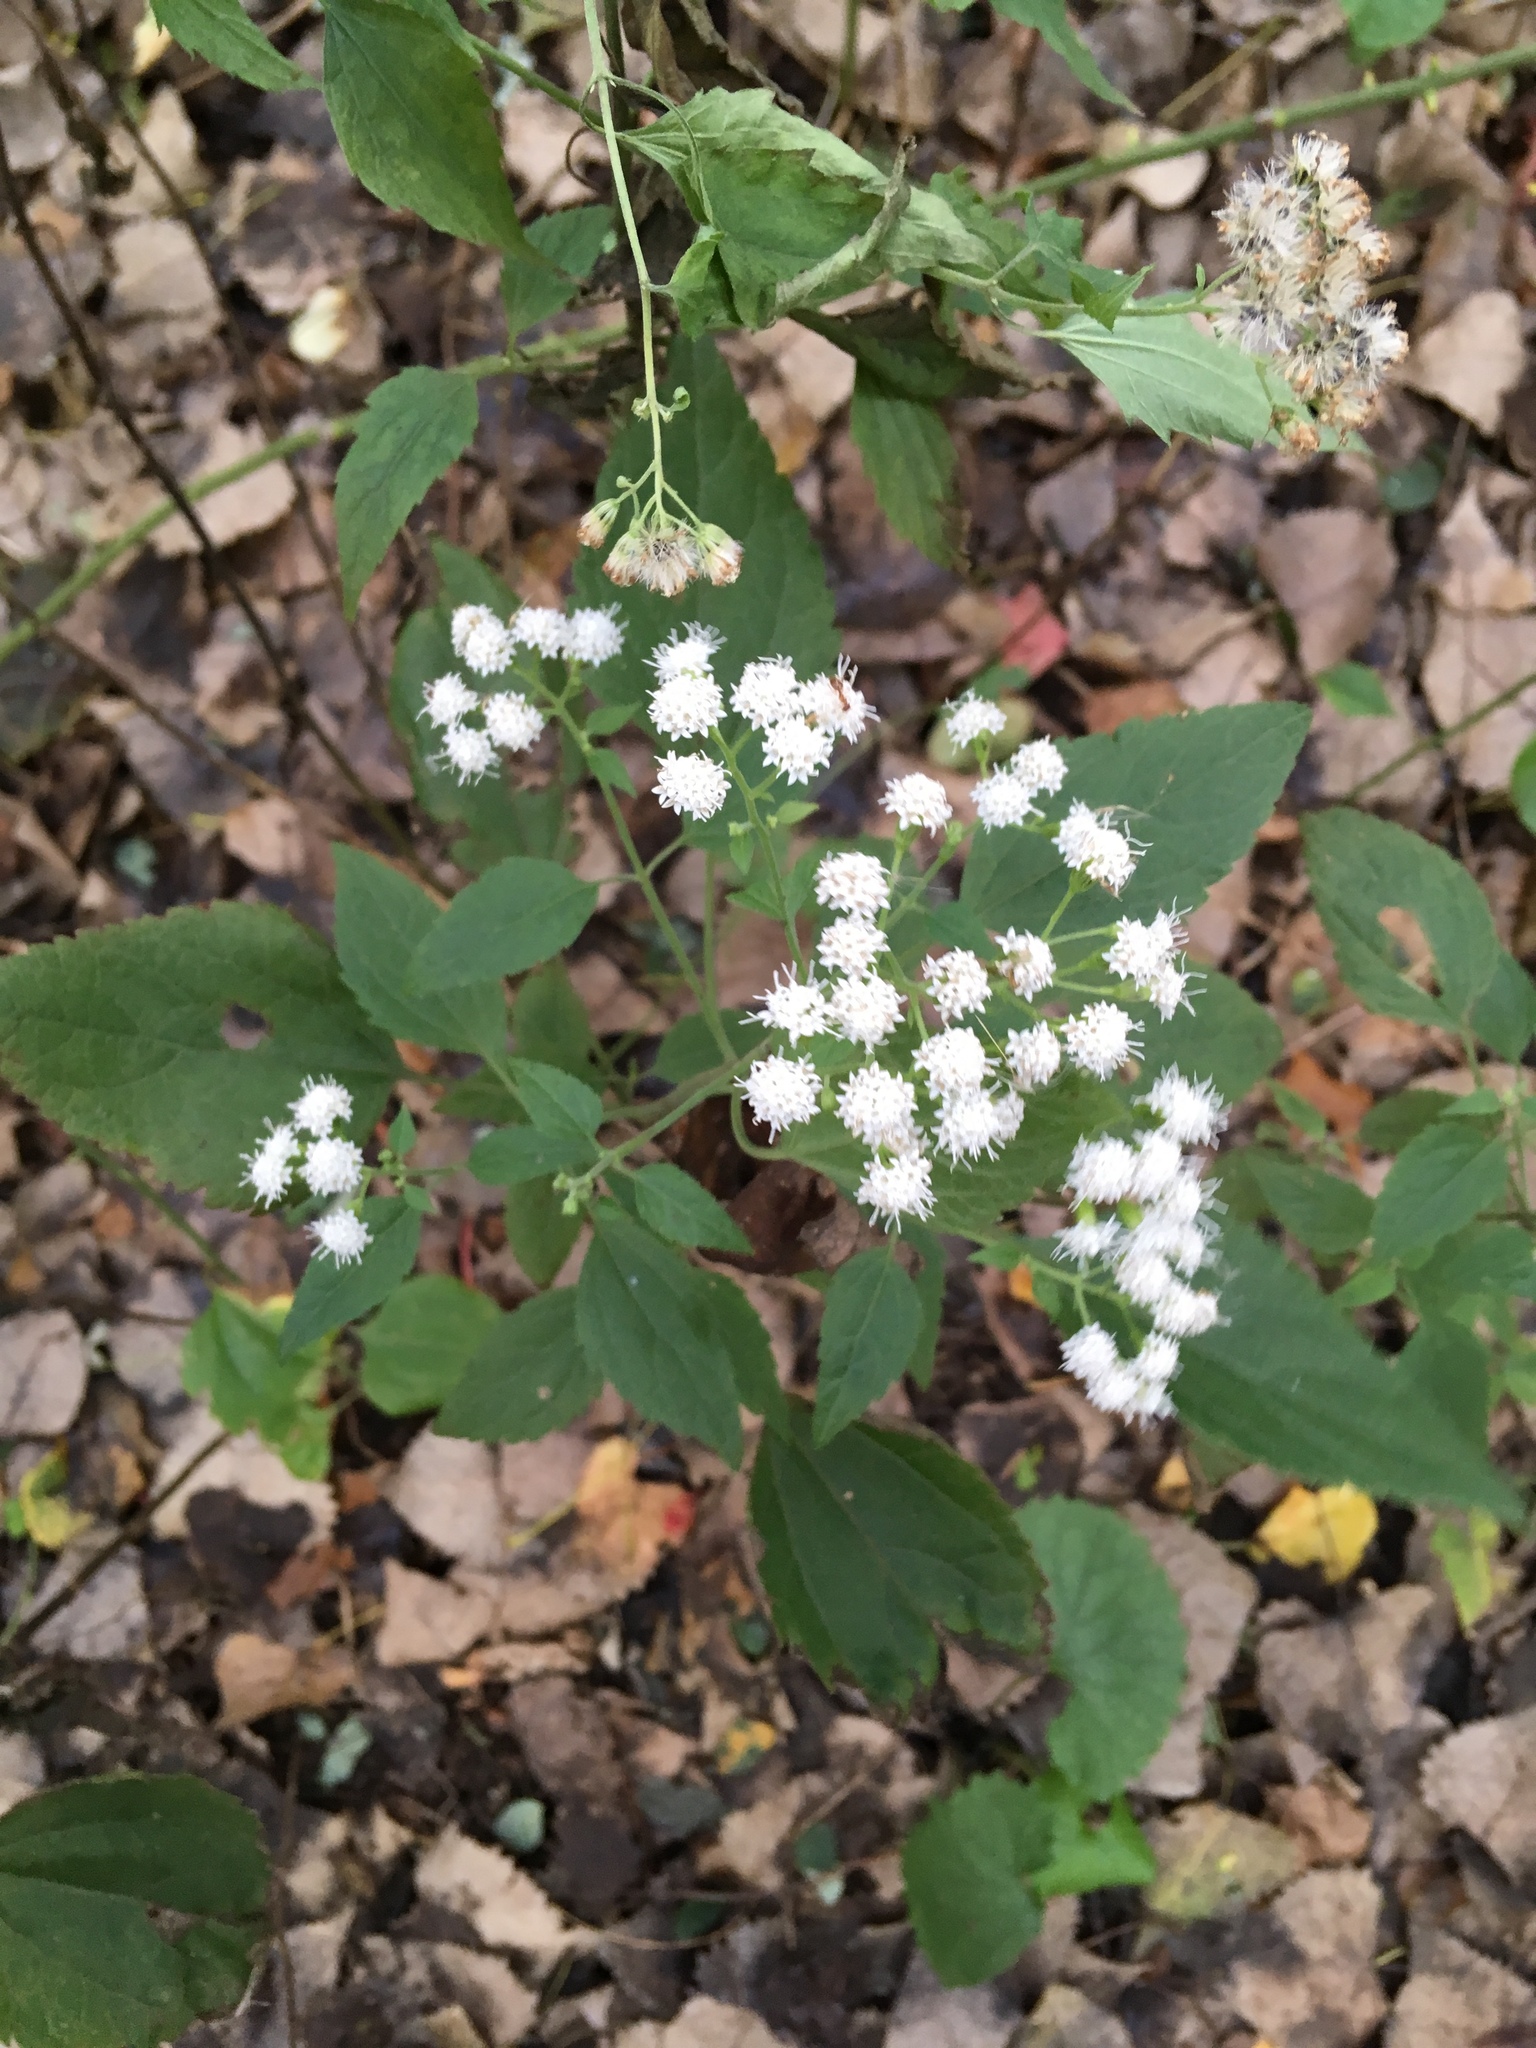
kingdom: Plantae
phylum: Tracheophyta
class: Magnoliopsida
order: Asterales
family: Asteraceae
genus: Ageratina
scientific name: Ageratina altissima
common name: White snakeroot
